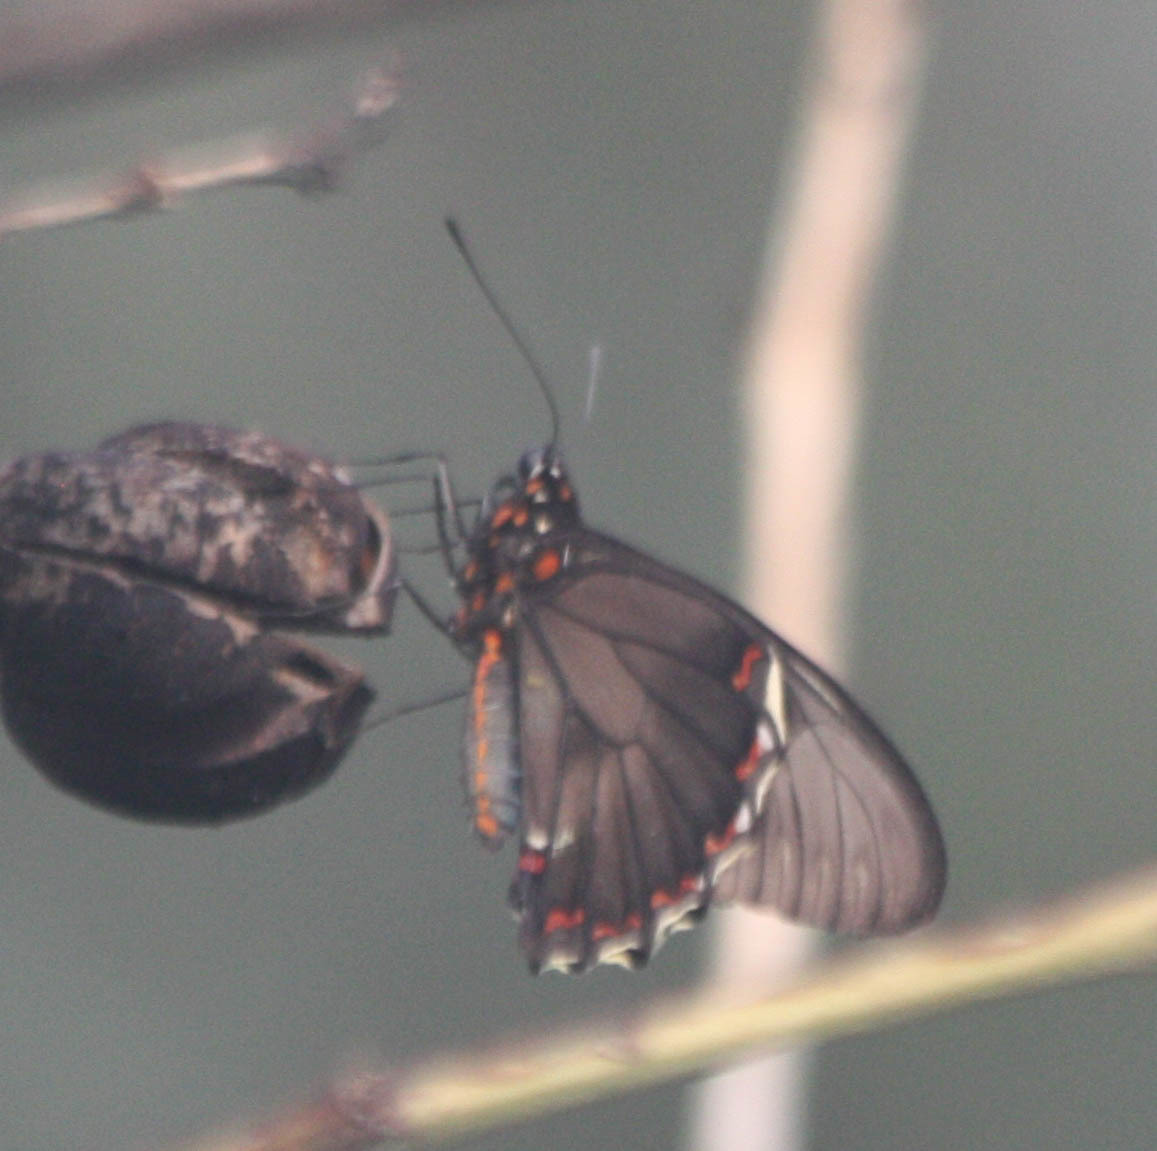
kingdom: Animalia
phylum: Arthropoda
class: Insecta
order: Lepidoptera
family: Papilionidae
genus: Battus
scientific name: Battus polydamas
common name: Polydamas swallowtail
